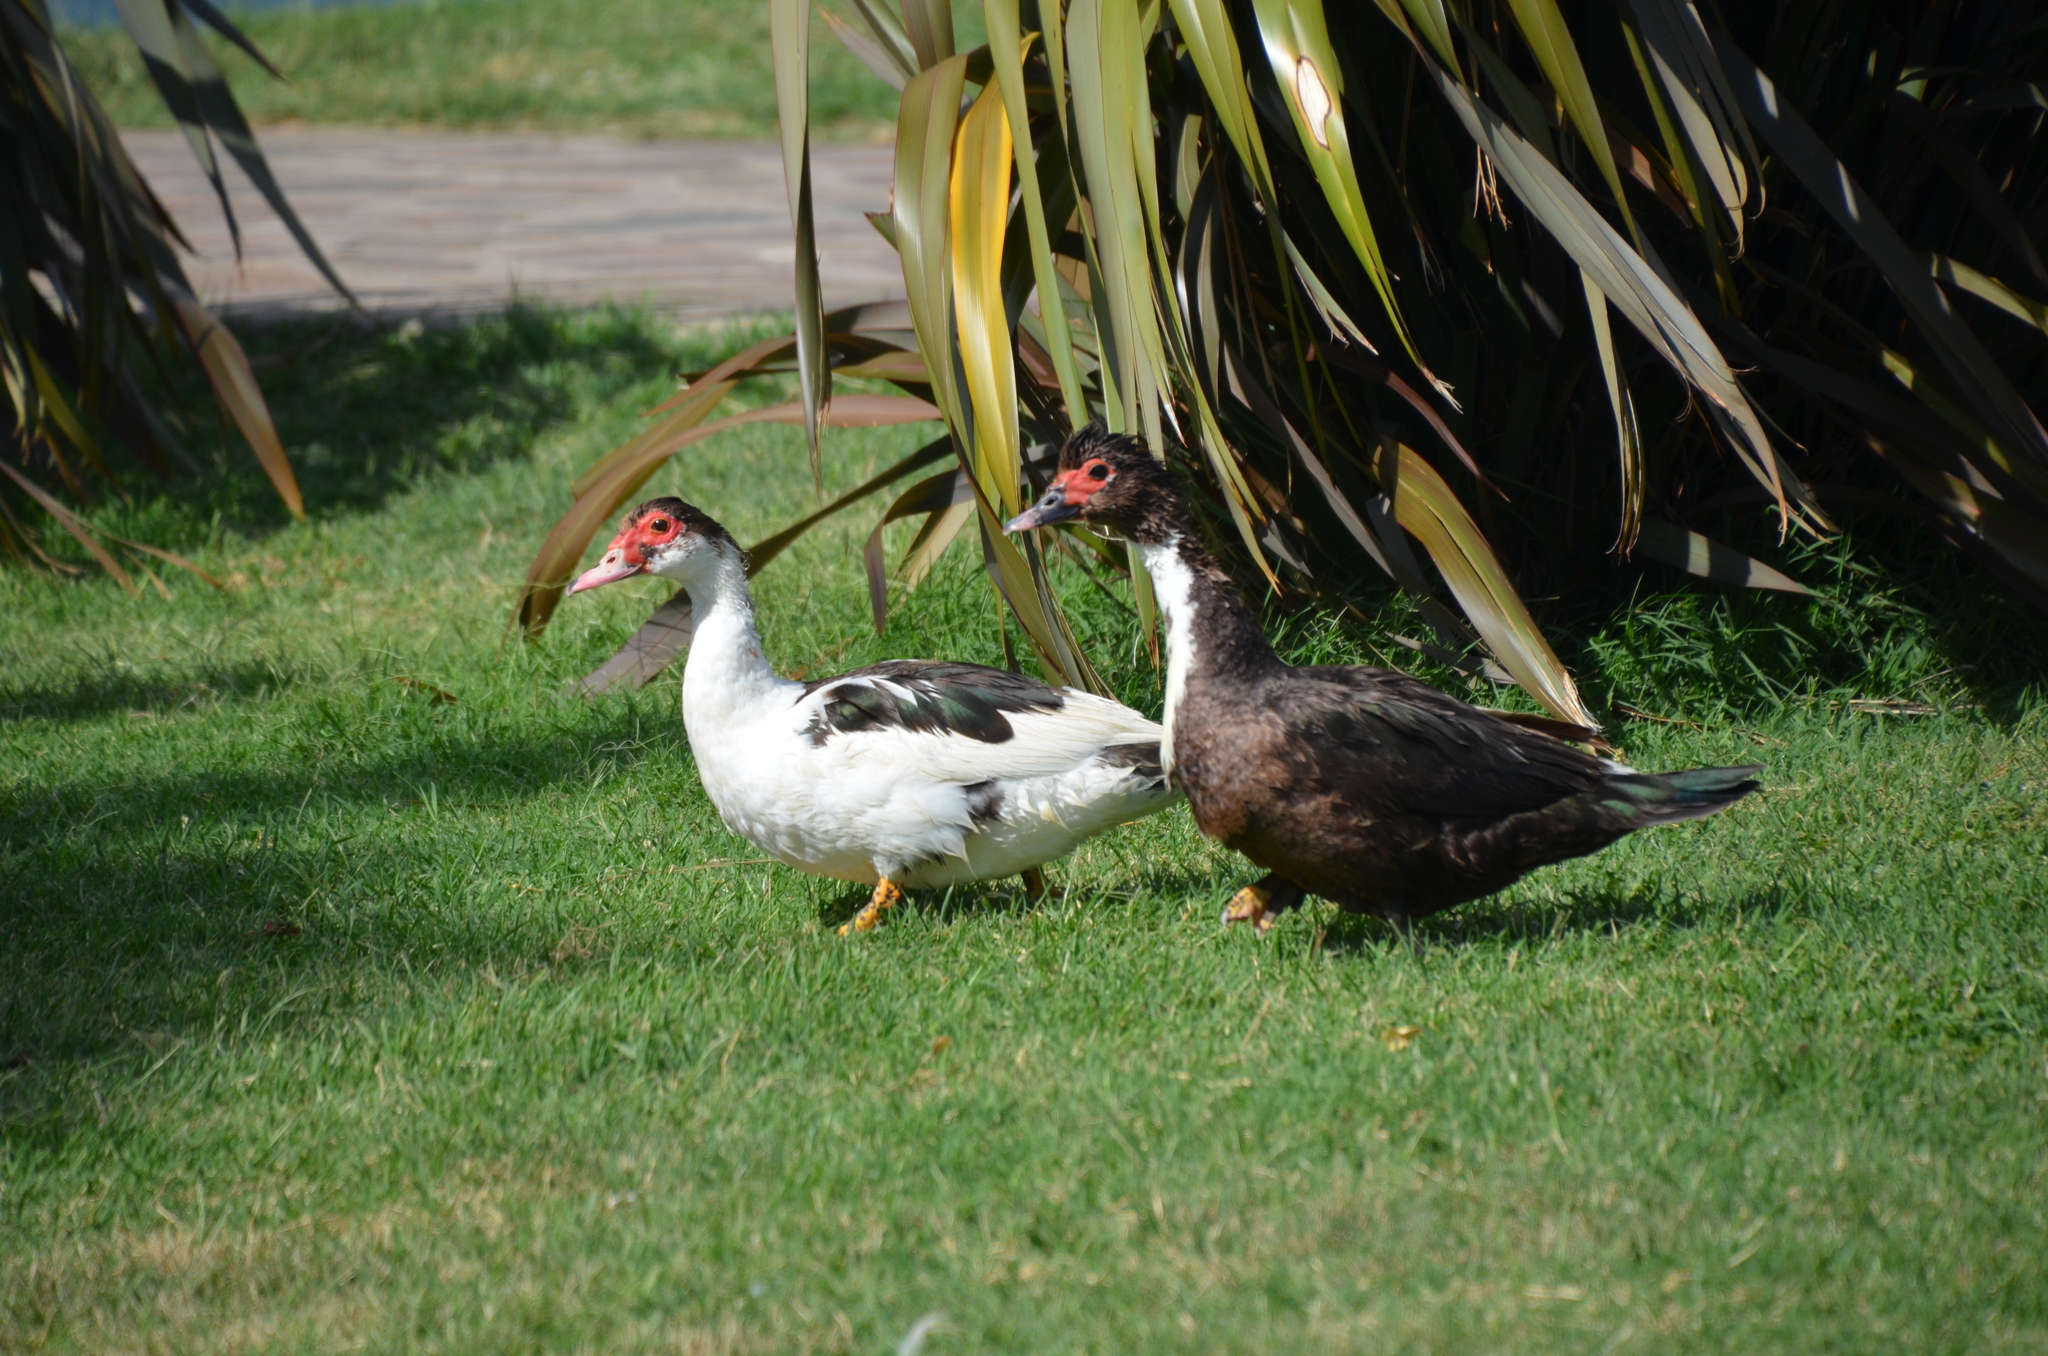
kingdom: Animalia
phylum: Chordata
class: Aves
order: Anseriformes
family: Anatidae
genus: Cairina
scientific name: Cairina moschata
